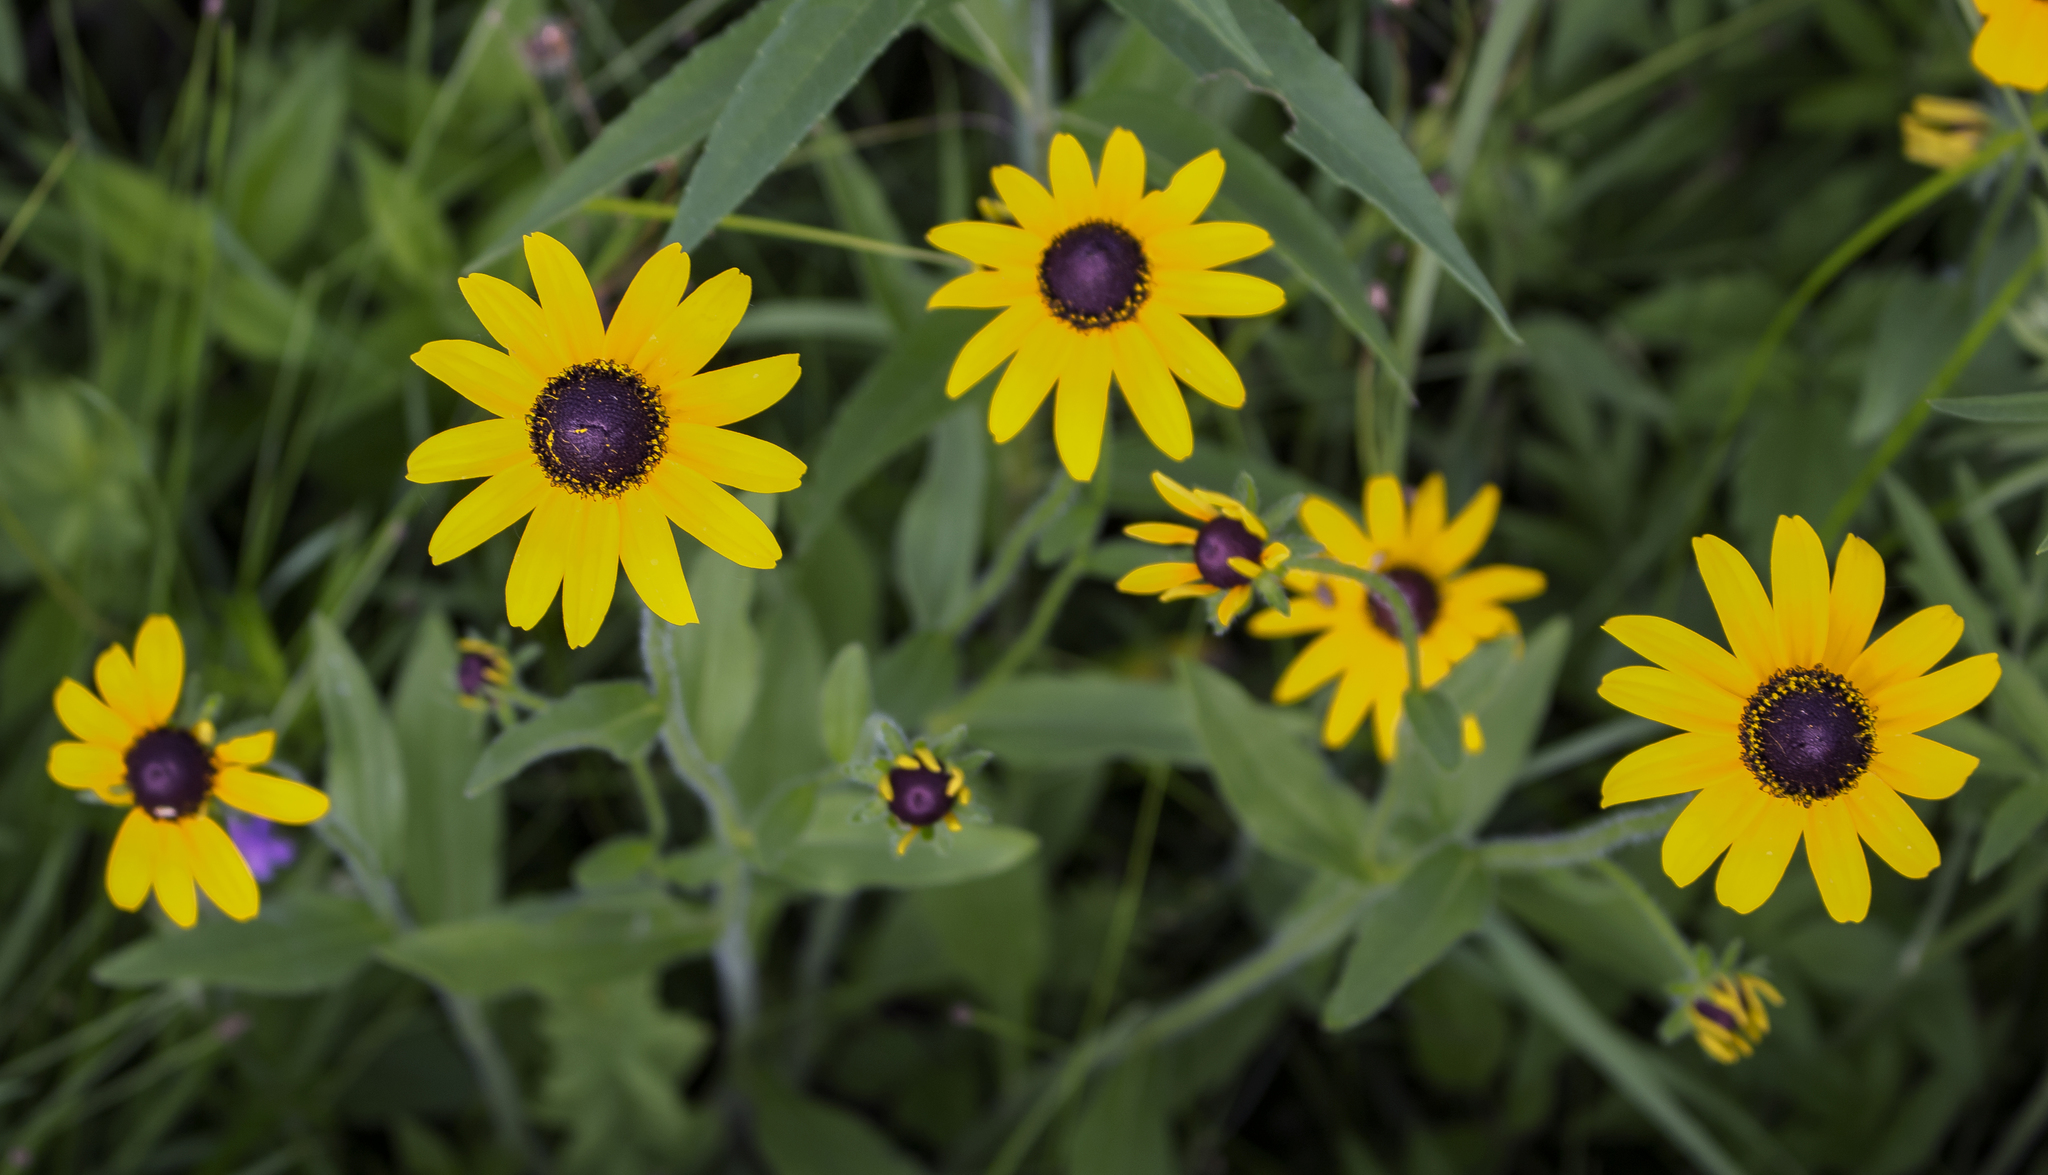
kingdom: Plantae
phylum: Tracheophyta
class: Magnoliopsida
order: Asterales
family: Asteraceae
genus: Rudbeckia
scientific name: Rudbeckia hirta
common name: Black-eyed-susan
